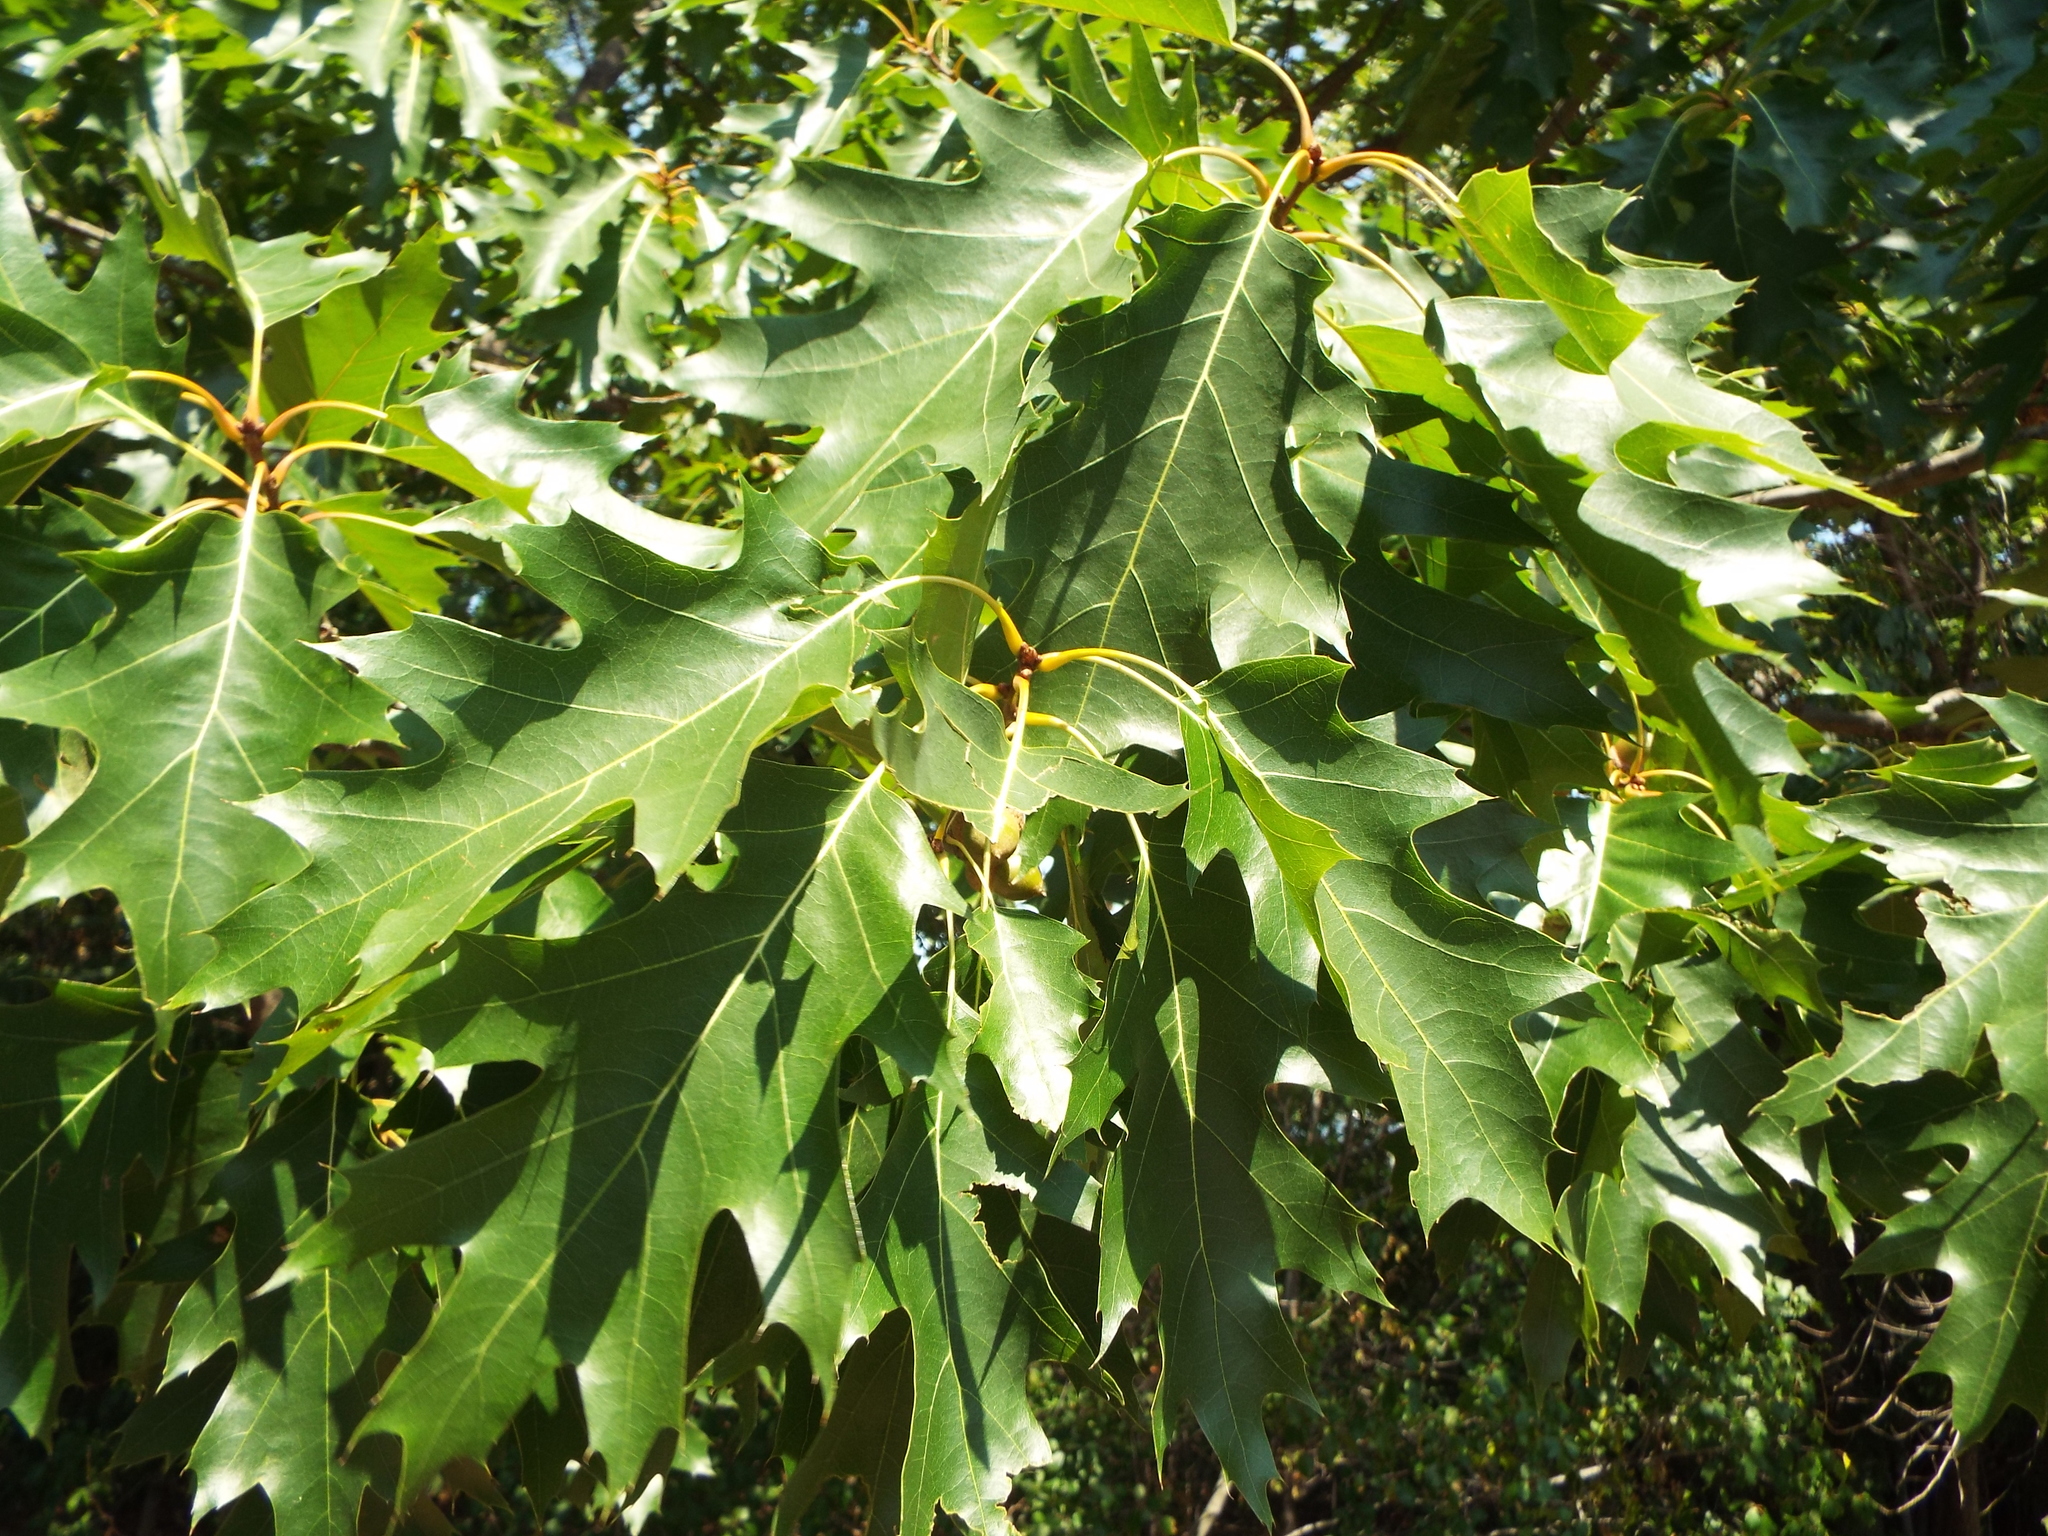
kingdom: Plantae
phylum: Tracheophyta
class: Magnoliopsida
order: Fagales
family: Fagaceae
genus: Quercus
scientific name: Quercus rubra
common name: Red oak
